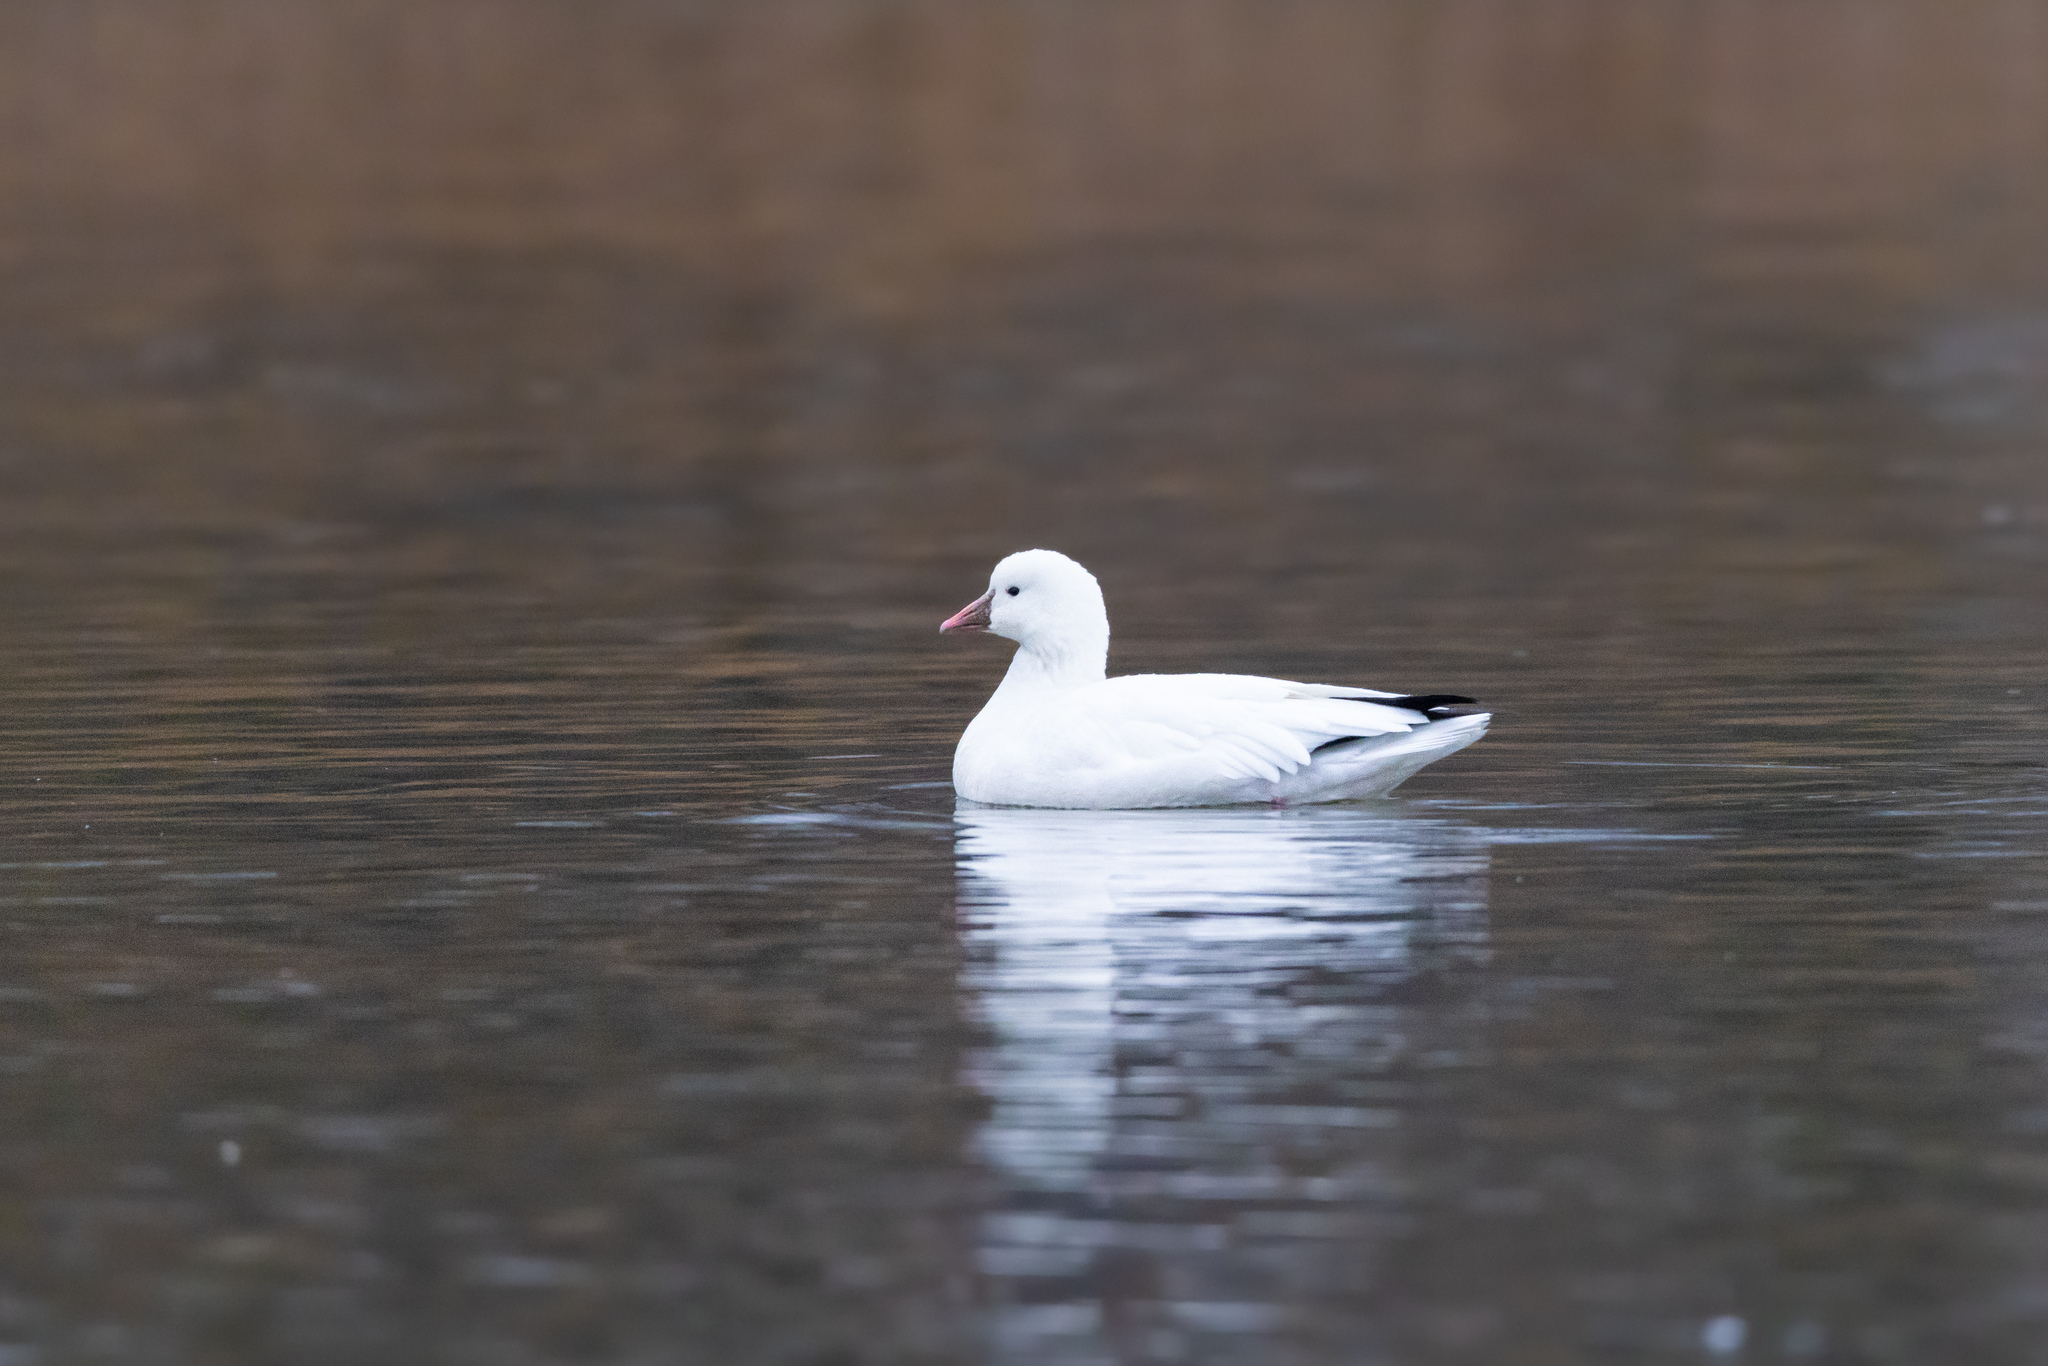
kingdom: Animalia
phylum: Chordata
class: Aves
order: Anseriformes
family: Anatidae
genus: Anser
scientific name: Anser rossii
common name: Ross's goose
